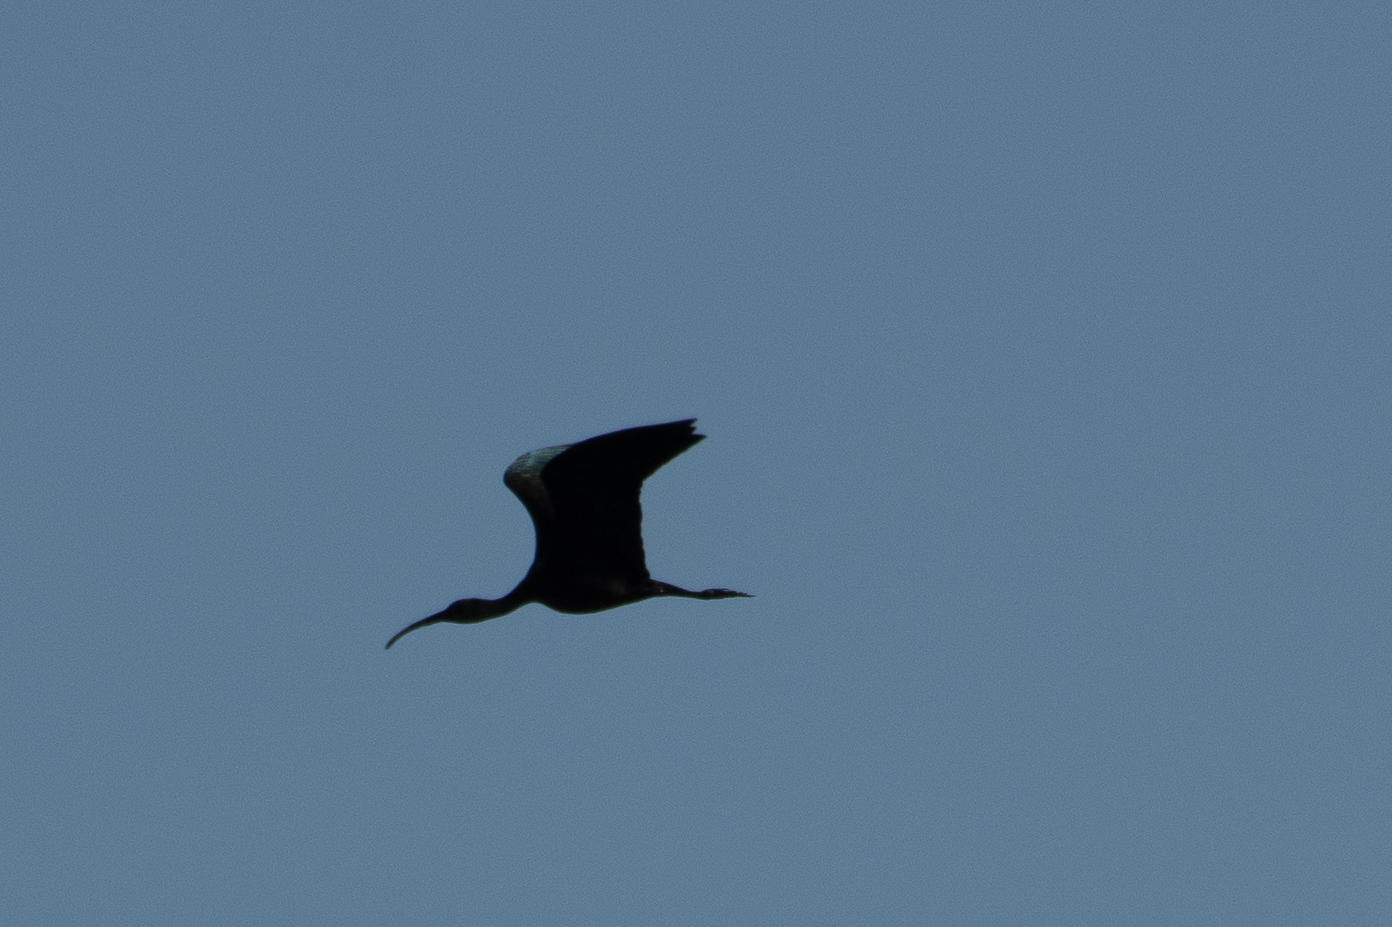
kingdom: Animalia
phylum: Chordata
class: Aves
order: Pelecaniformes
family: Threskiornithidae
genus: Plegadis
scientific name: Plegadis chihi
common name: White-faced ibis
